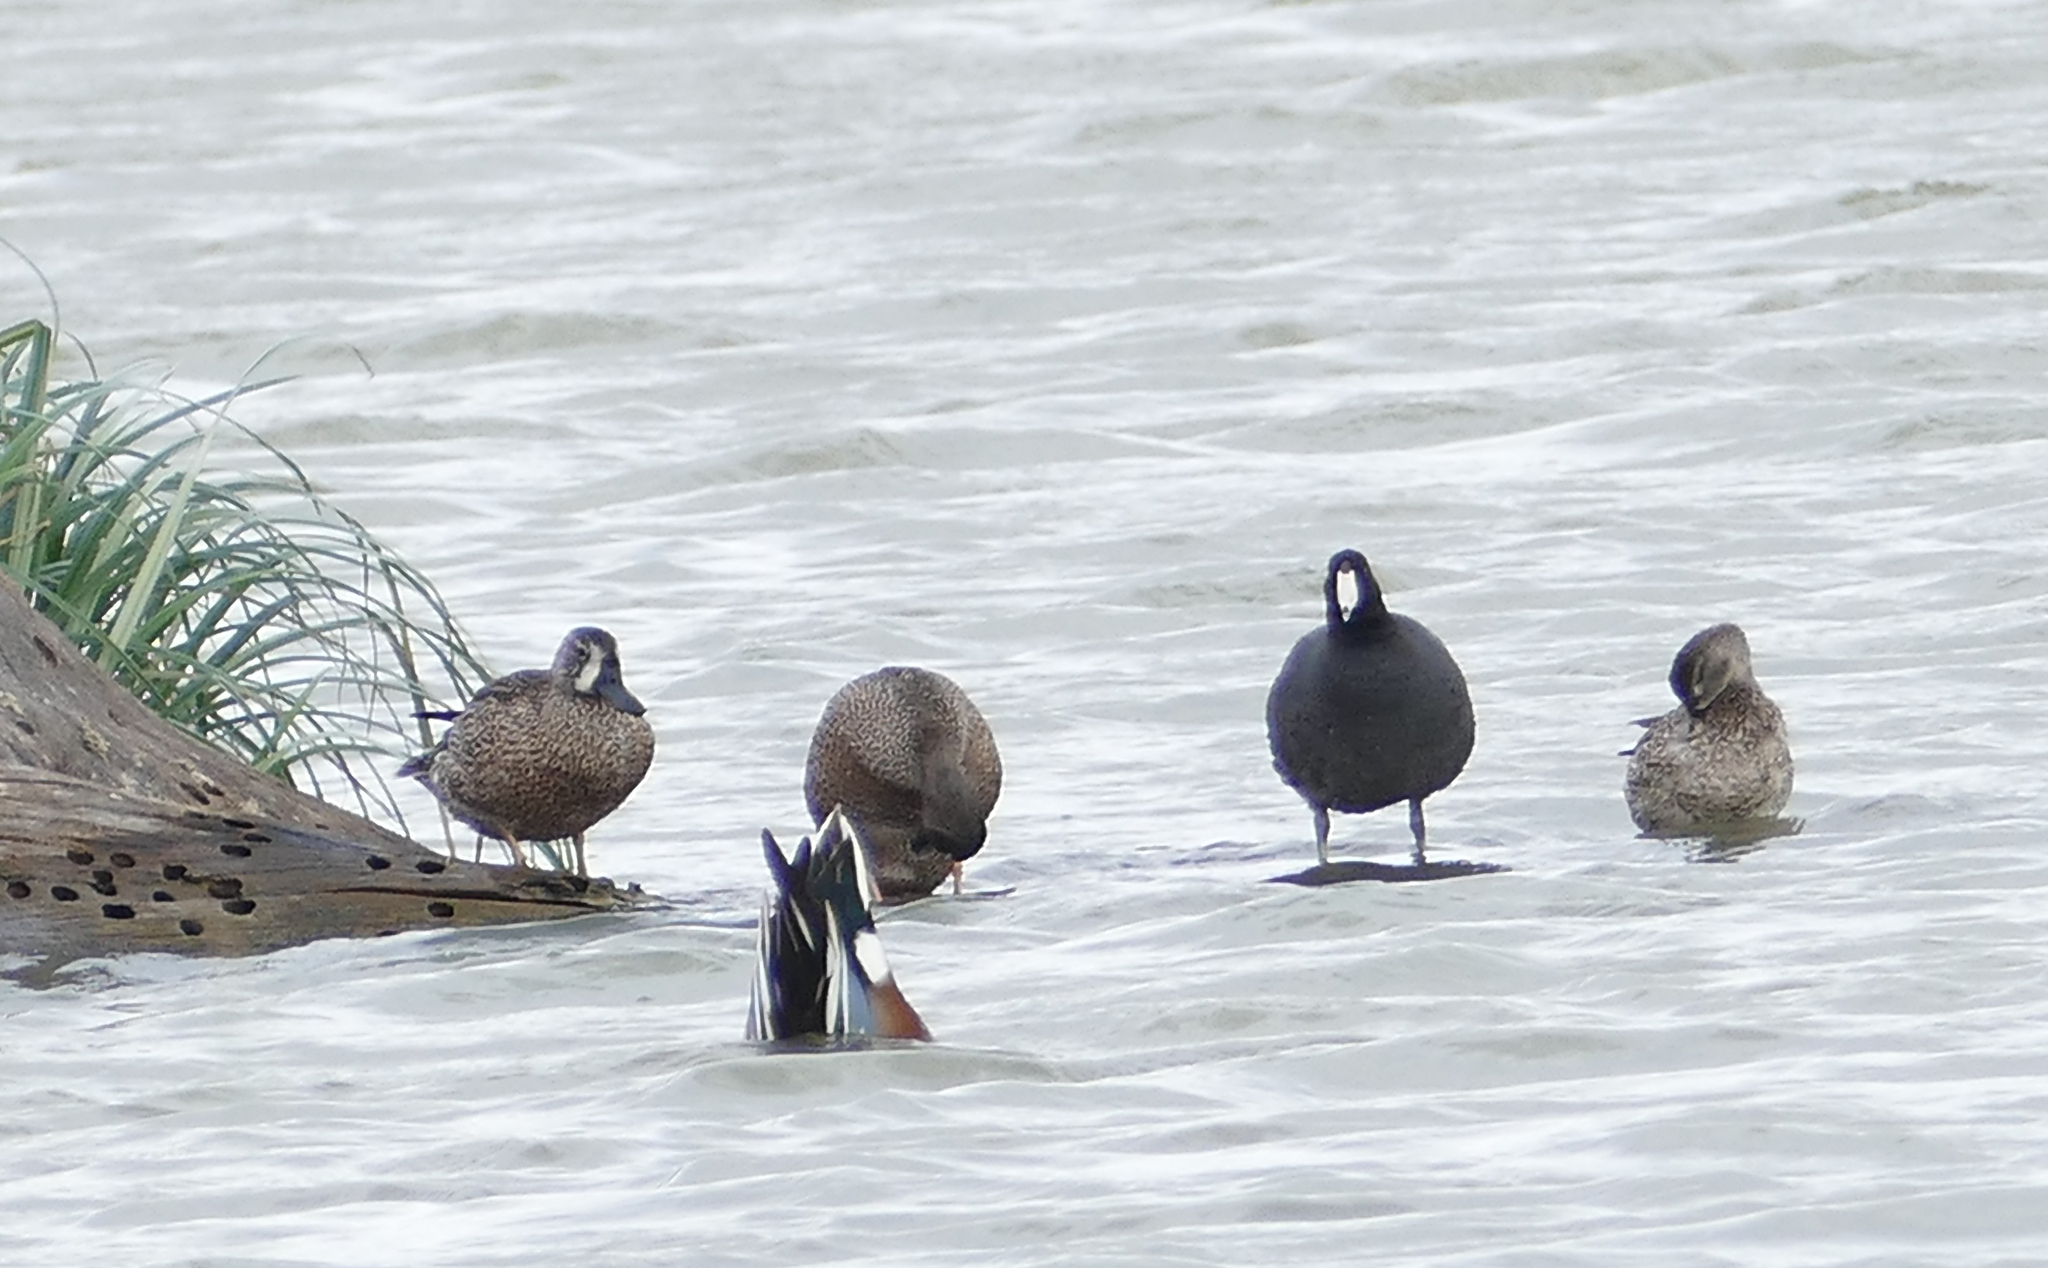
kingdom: Animalia
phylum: Chordata
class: Aves
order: Gruiformes
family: Rallidae
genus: Fulica
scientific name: Fulica americana
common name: American coot
